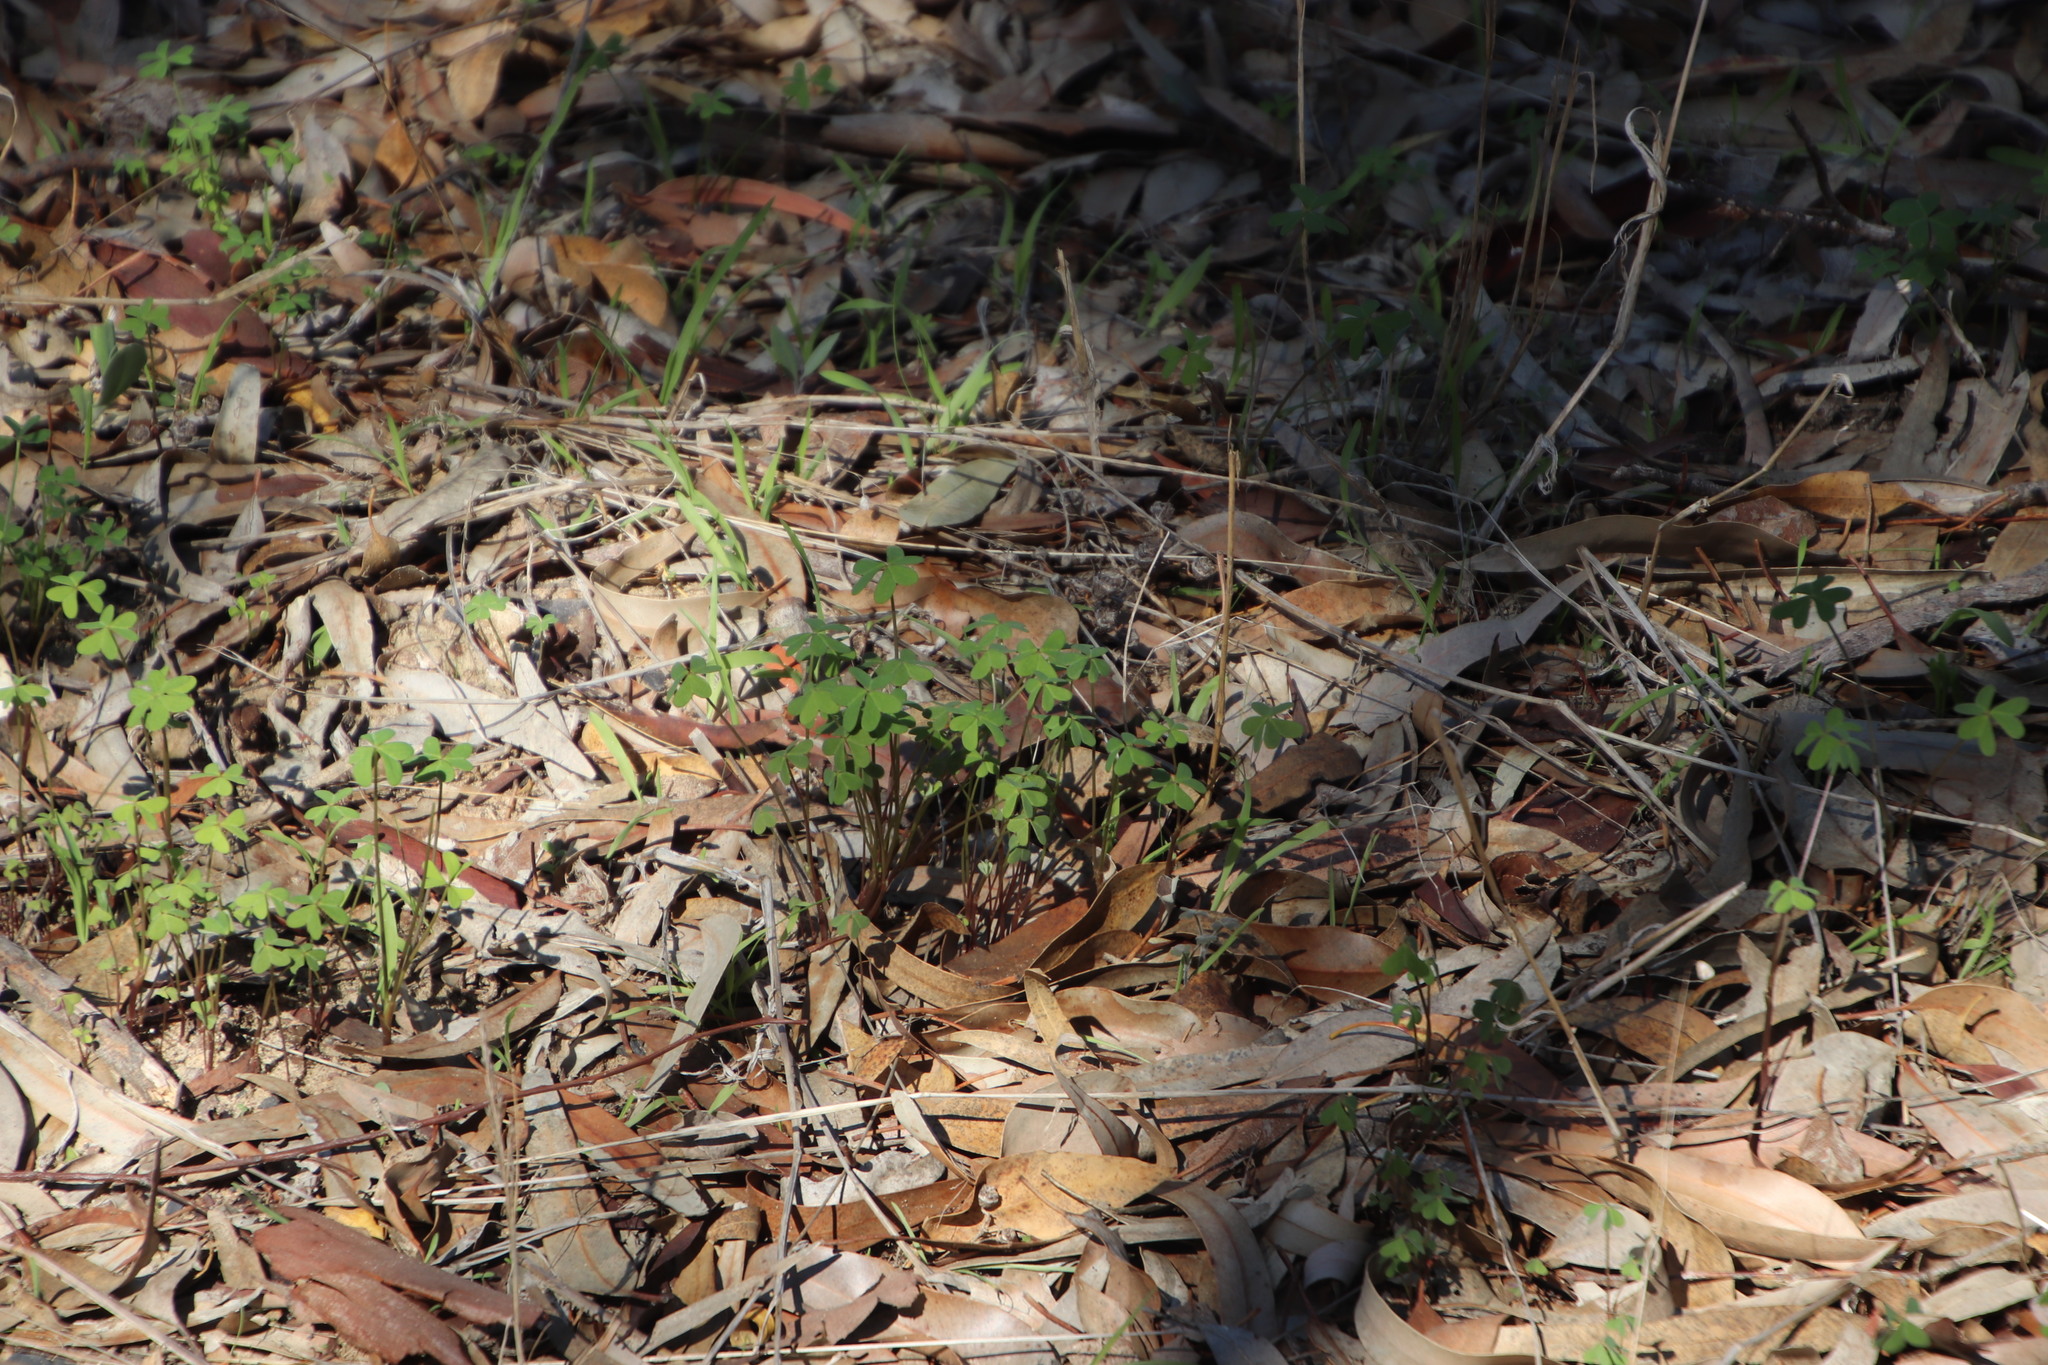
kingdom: Plantae
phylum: Tracheophyta
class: Magnoliopsida
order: Oxalidales
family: Oxalidaceae
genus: Oxalis
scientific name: Oxalis pes-caprae
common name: Bermuda-buttercup
